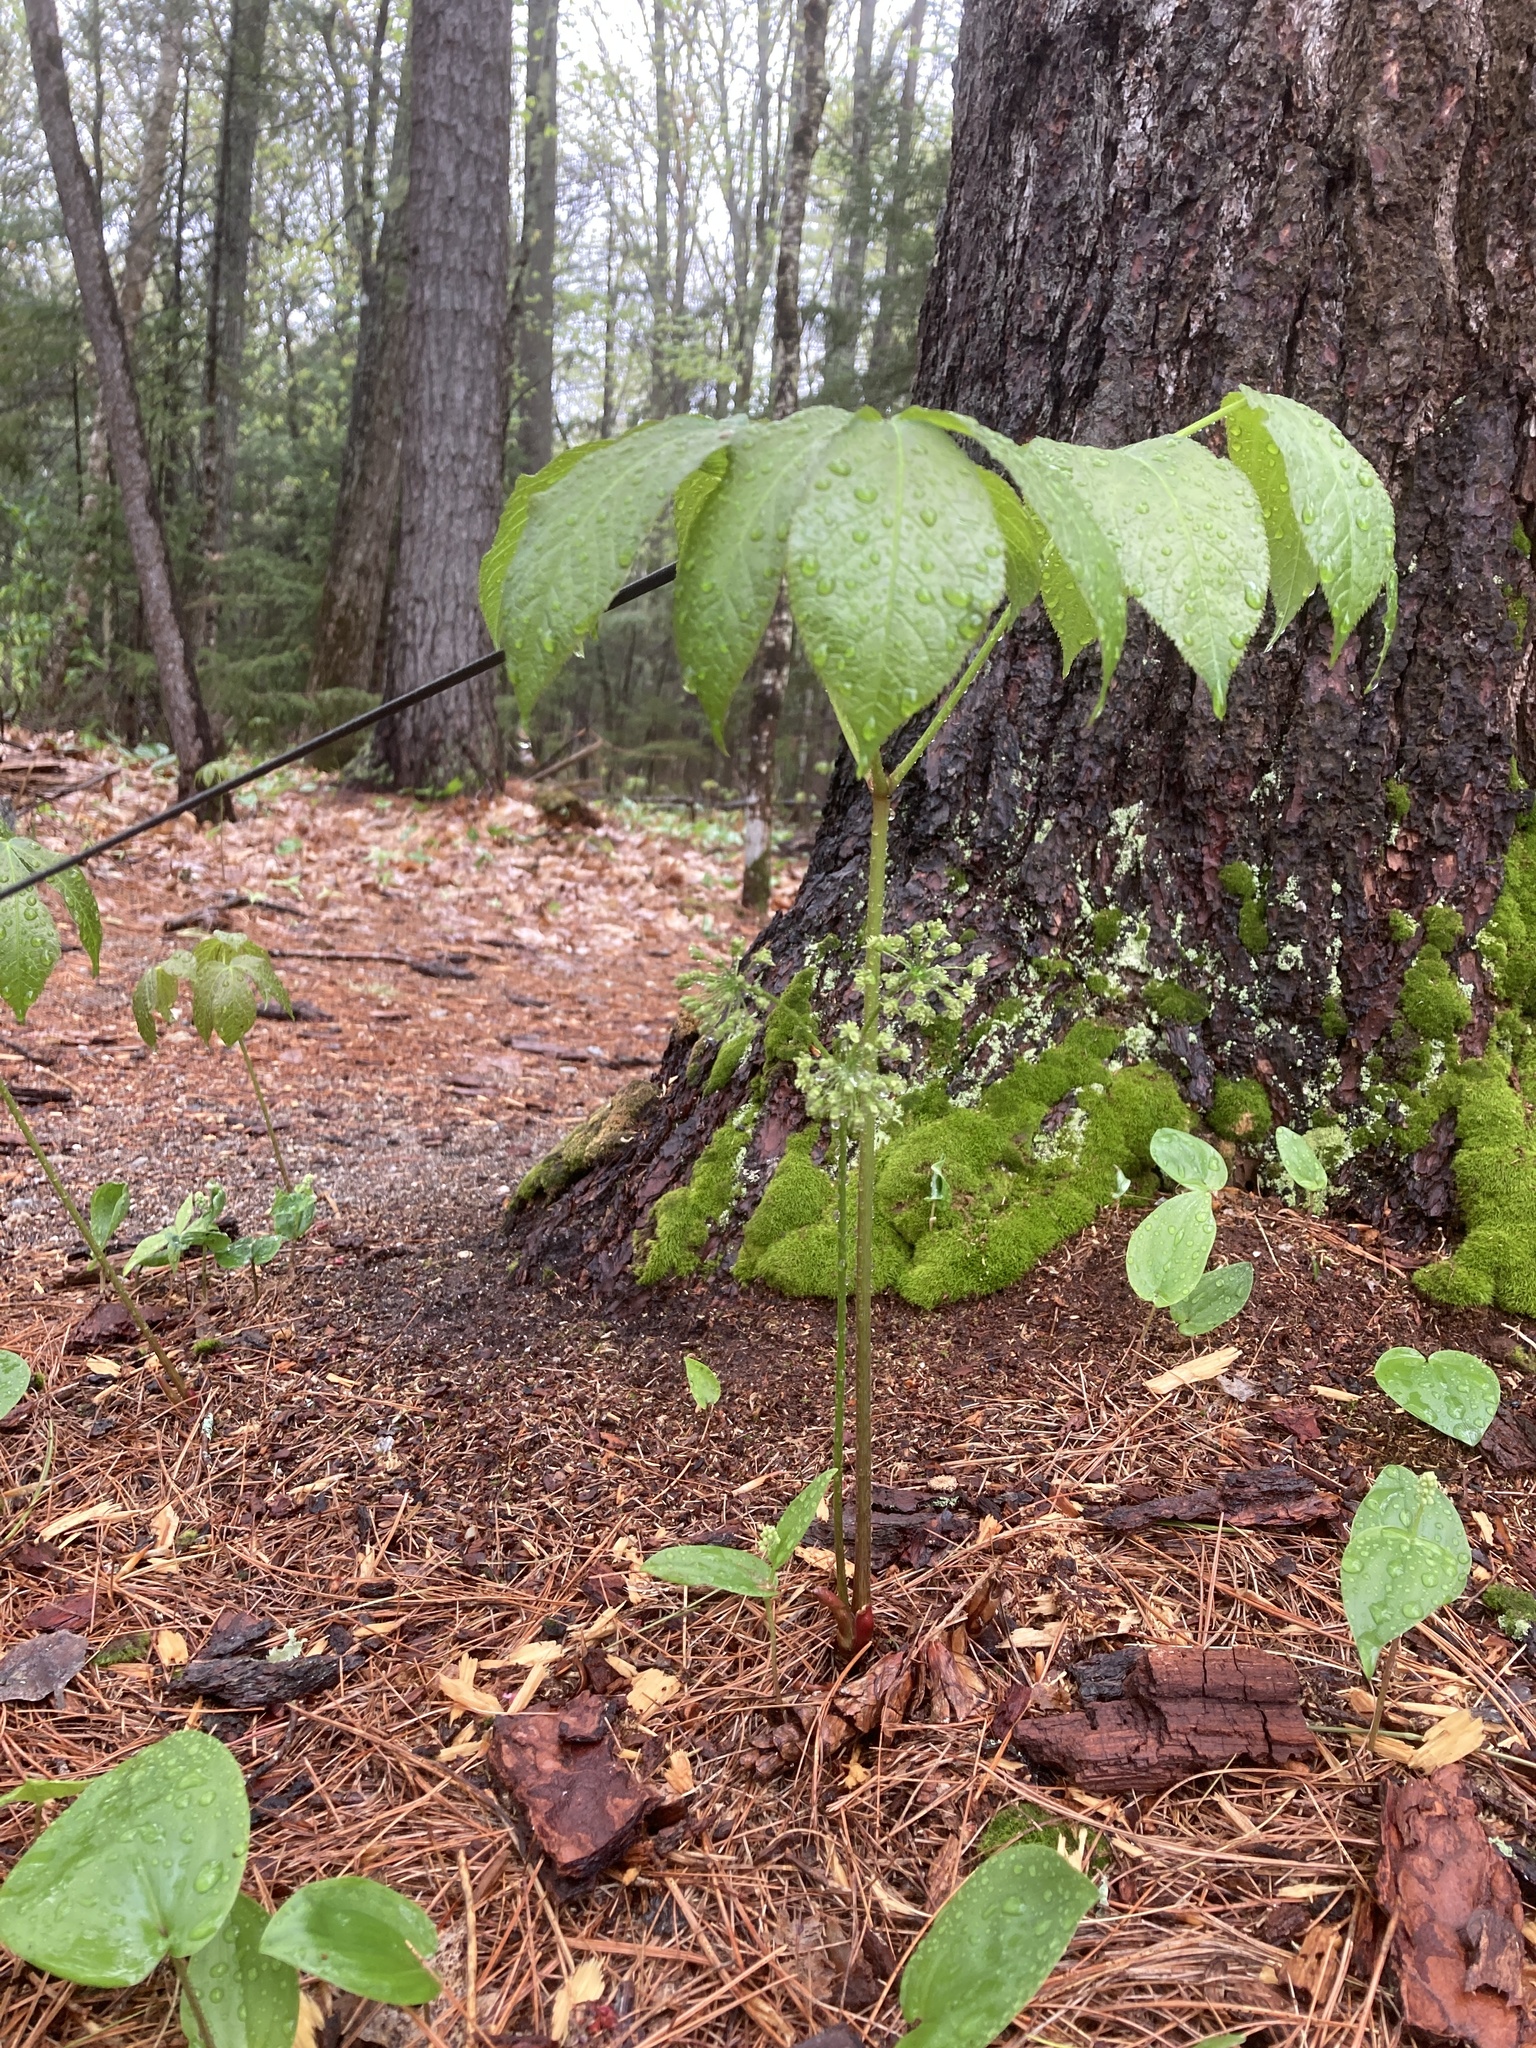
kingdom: Plantae
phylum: Tracheophyta
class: Magnoliopsida
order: Apiales
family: Araliaceae
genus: Aralia
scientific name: Aralia nudicaulis
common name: Wild sarsaparilla
